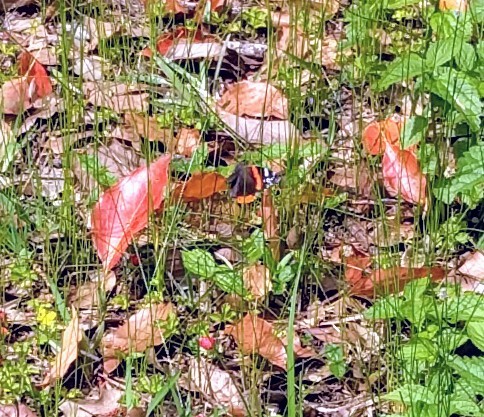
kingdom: Animalia
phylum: Arthropoda
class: Insecta
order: Lepidoptera
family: Nymphalidae
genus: Vanessa
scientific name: Vanessa atalanta
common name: Red admiral
